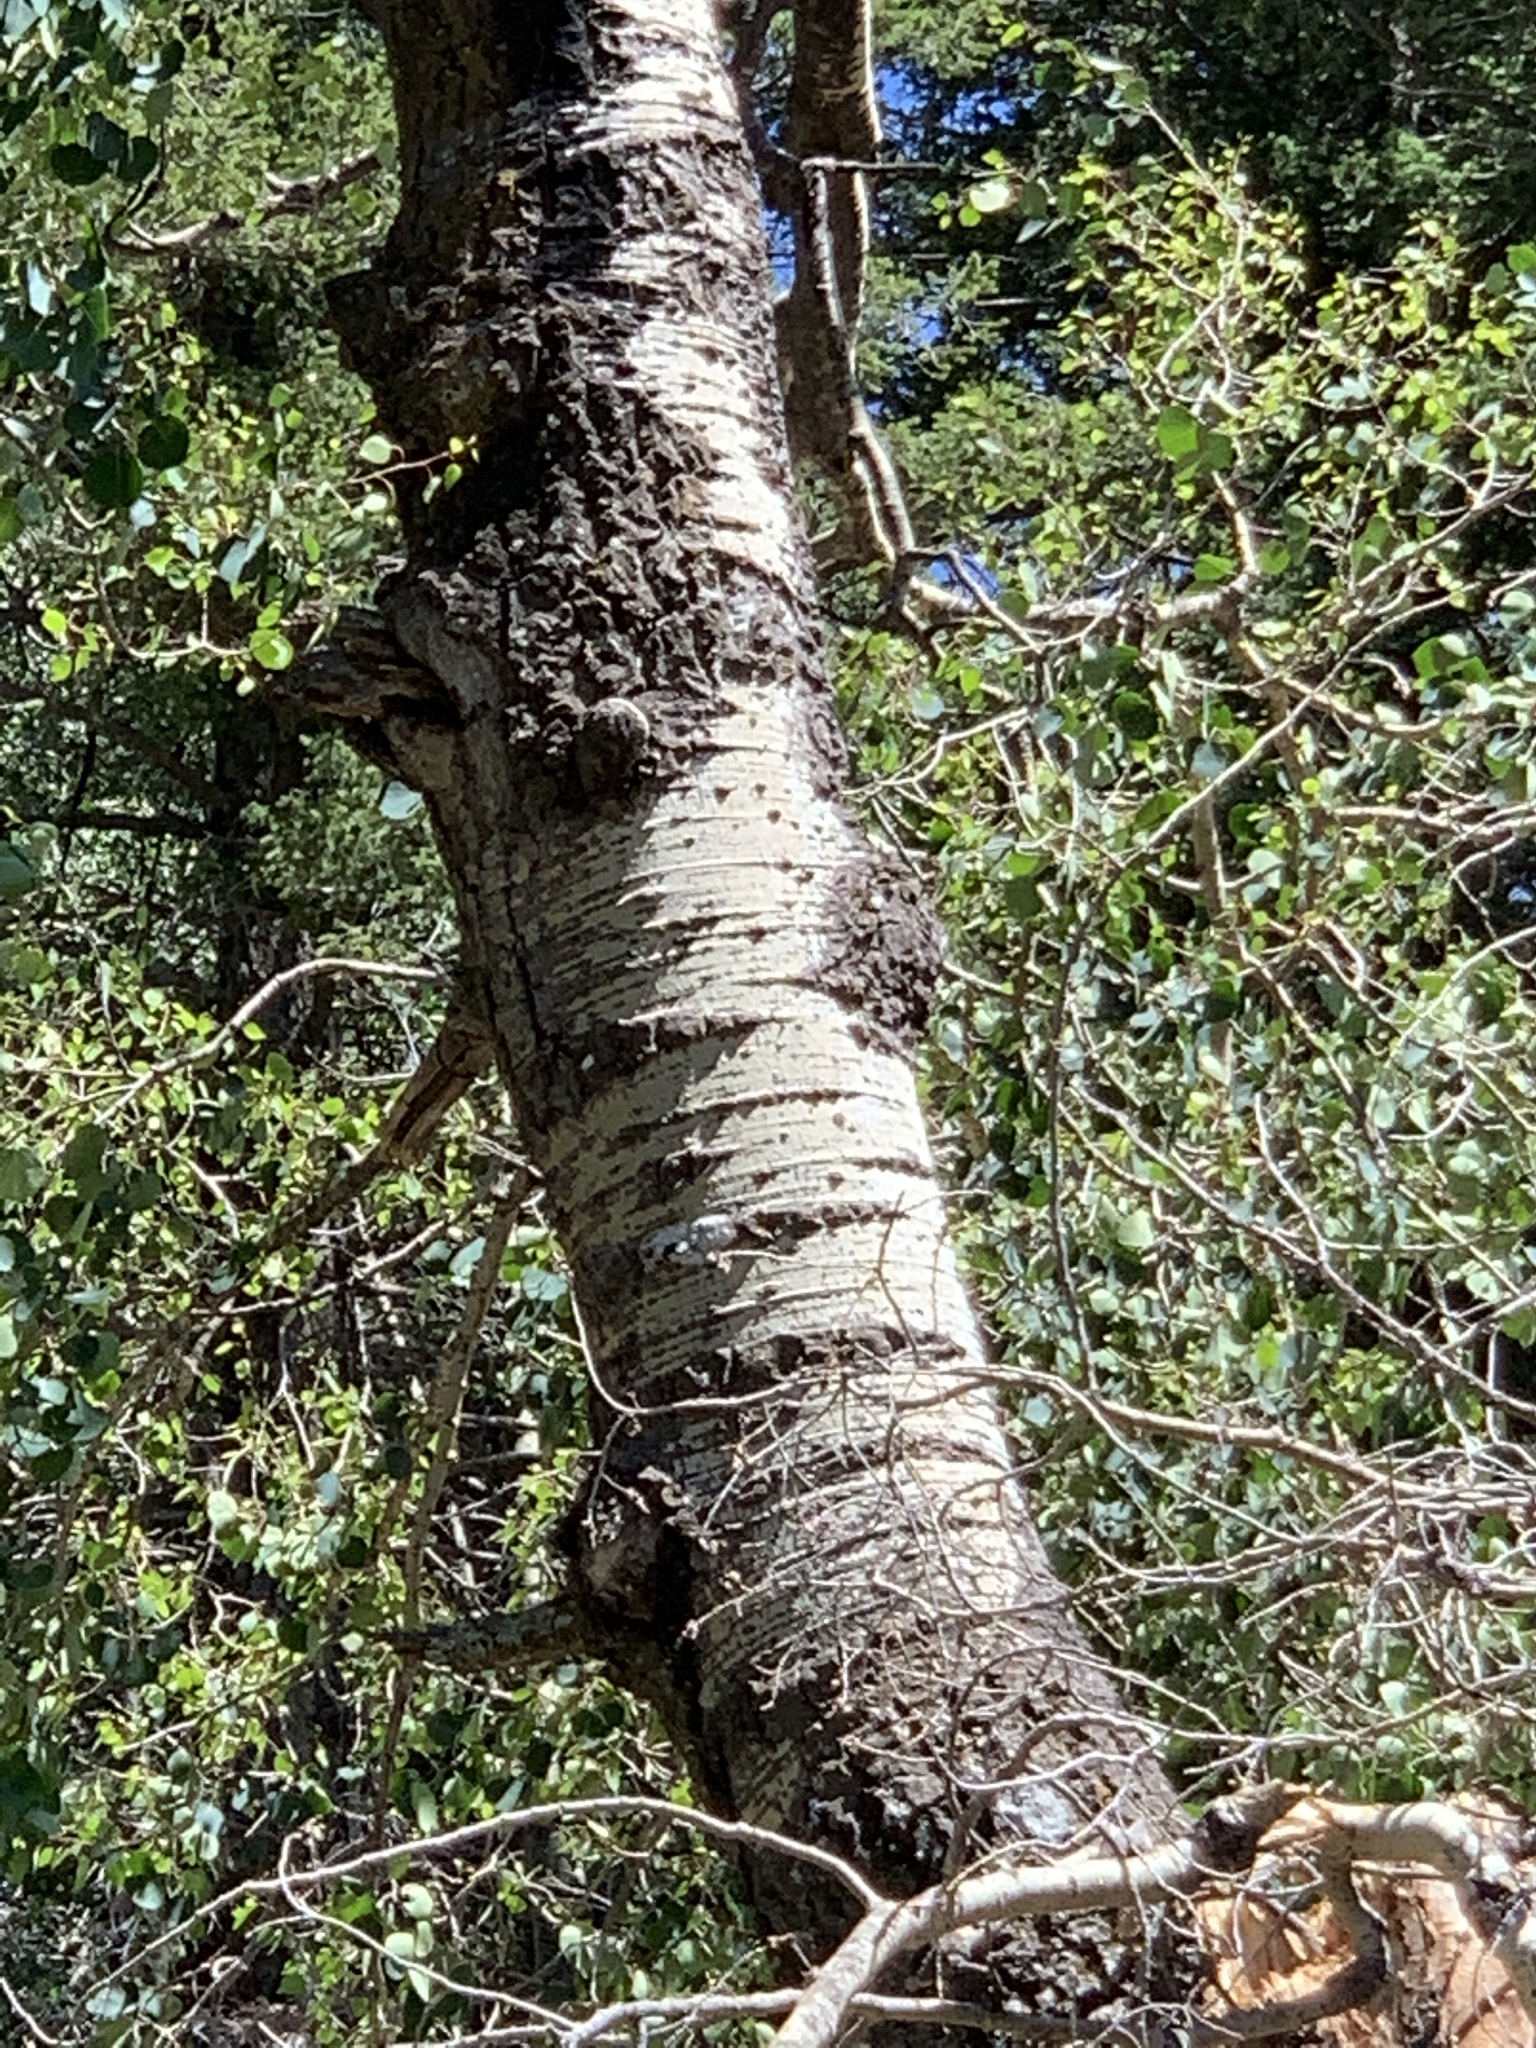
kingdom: Plantae
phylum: Tracheophyta
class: Magnoliopsida
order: Malpighiales
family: Salicaceae
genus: Populus
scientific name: Populus tremuloides
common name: Quaking aspen
